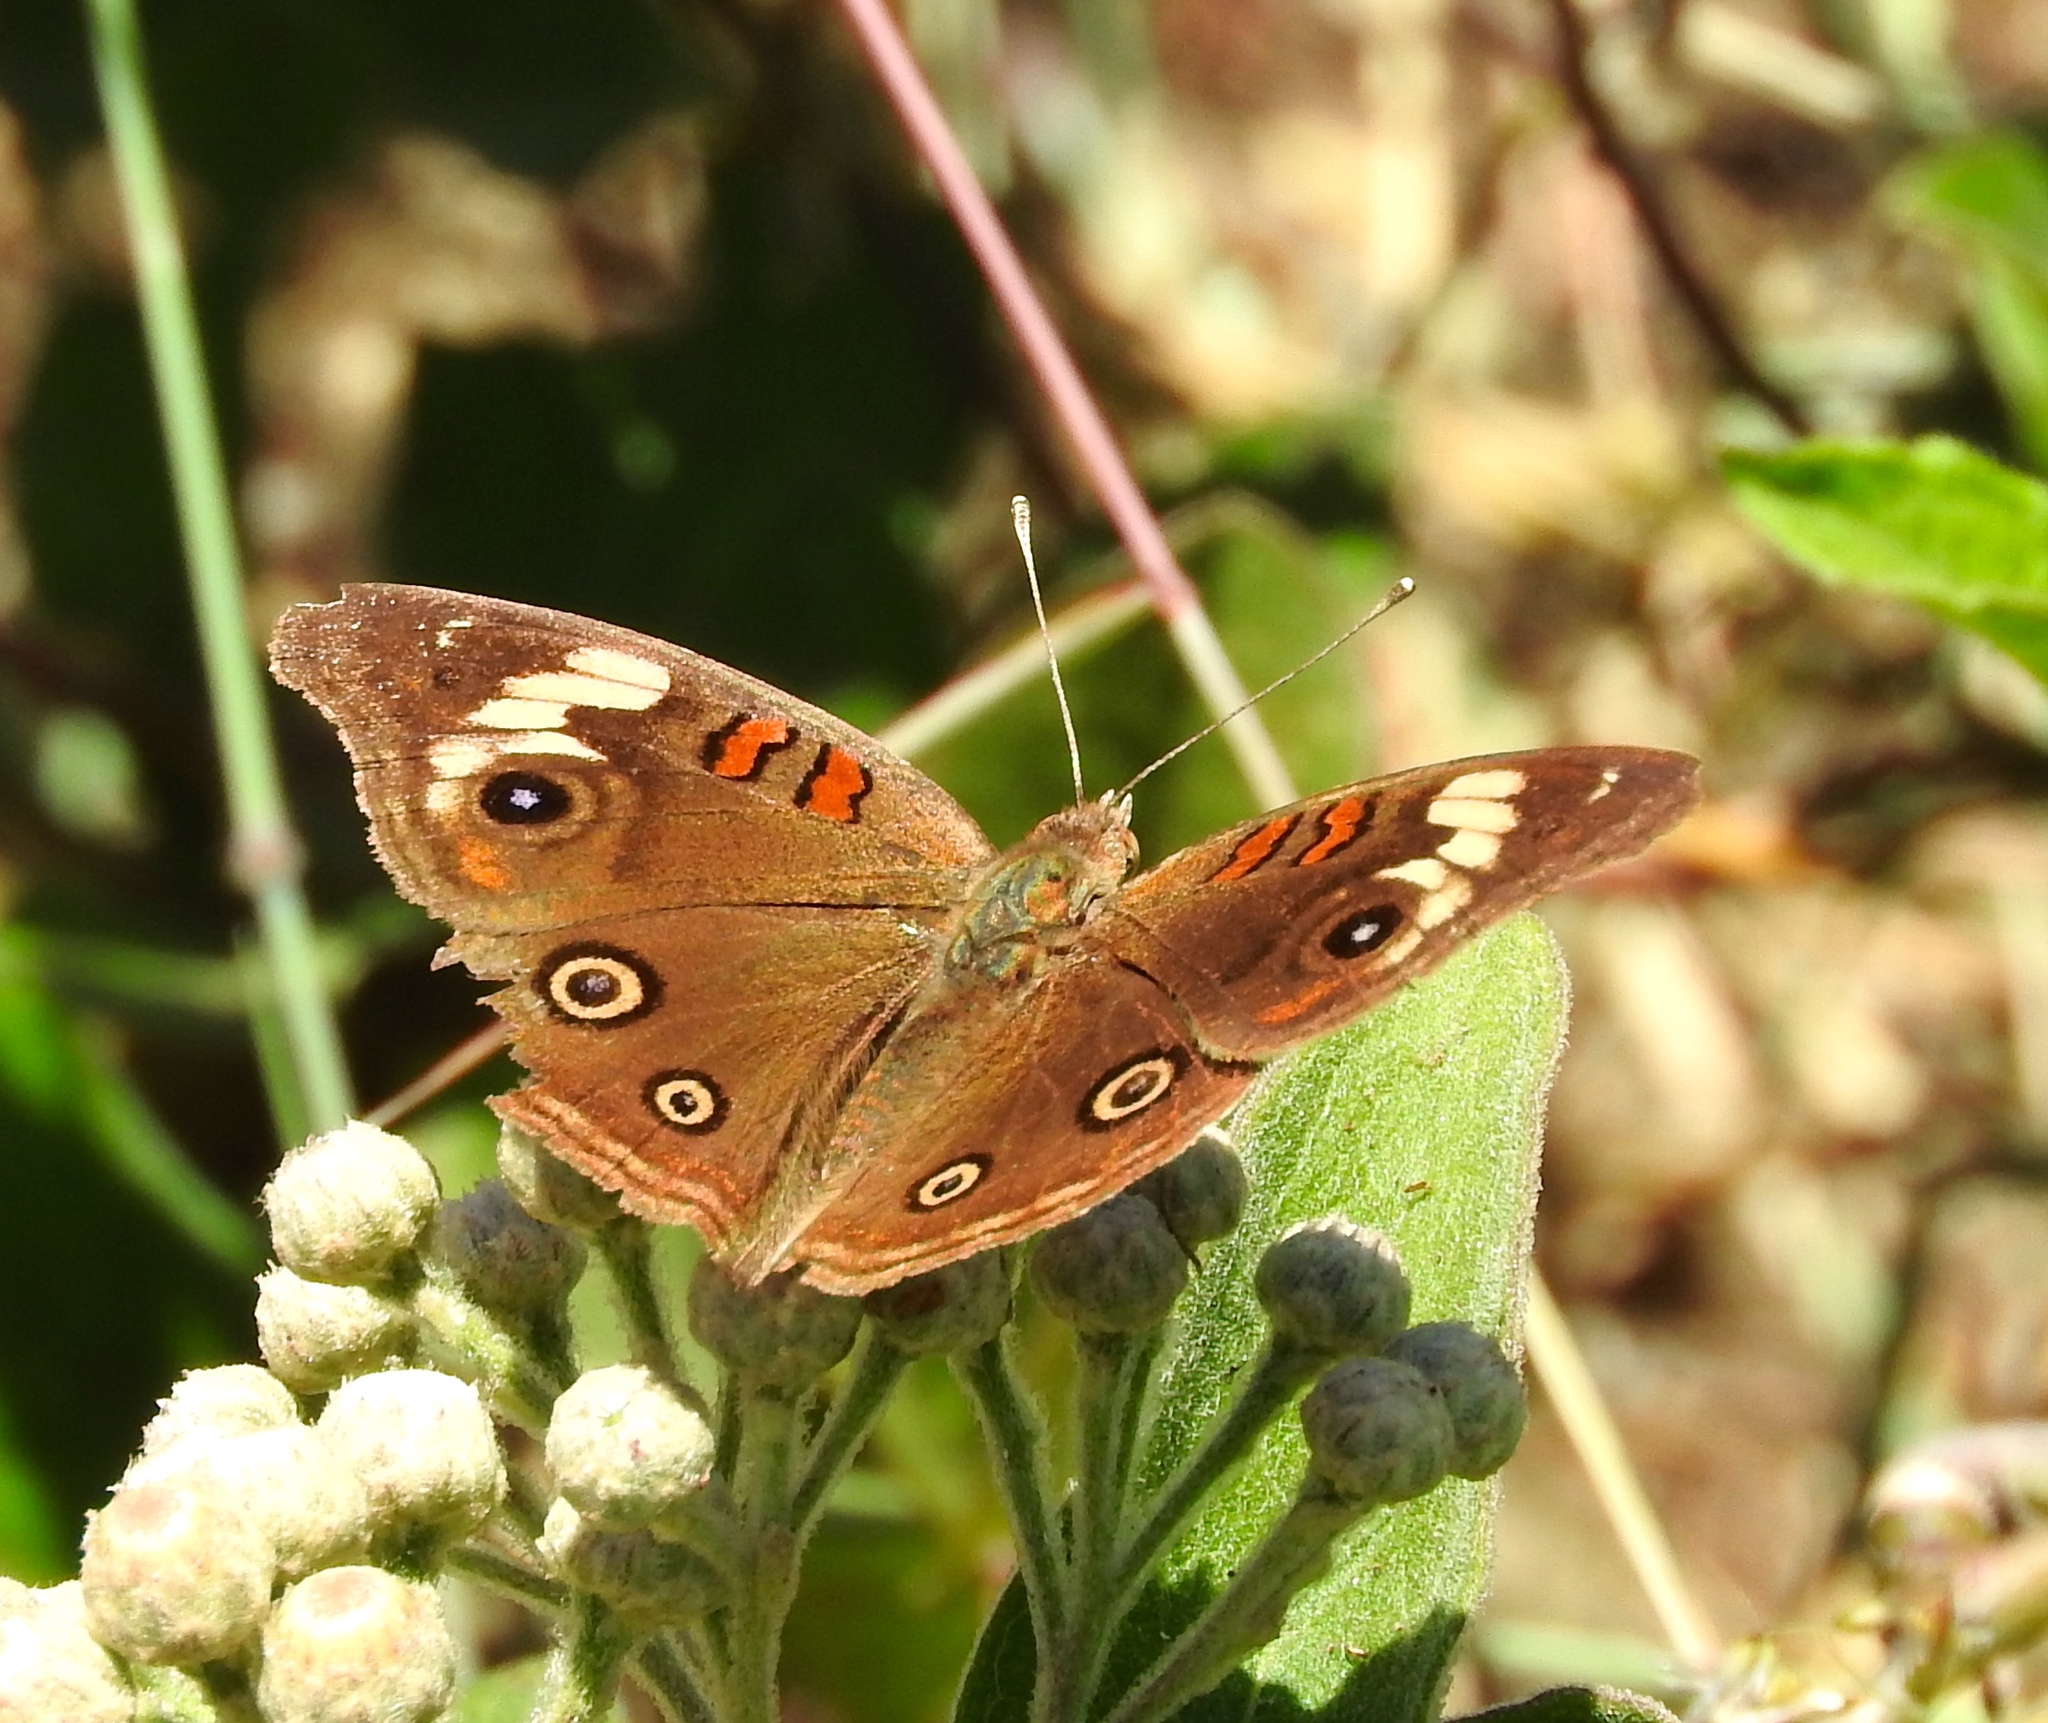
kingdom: Animalia
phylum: Arthropoda
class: Insecta
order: Lepidoptera
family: Nymphalidae
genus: Junonia
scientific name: Junonia
